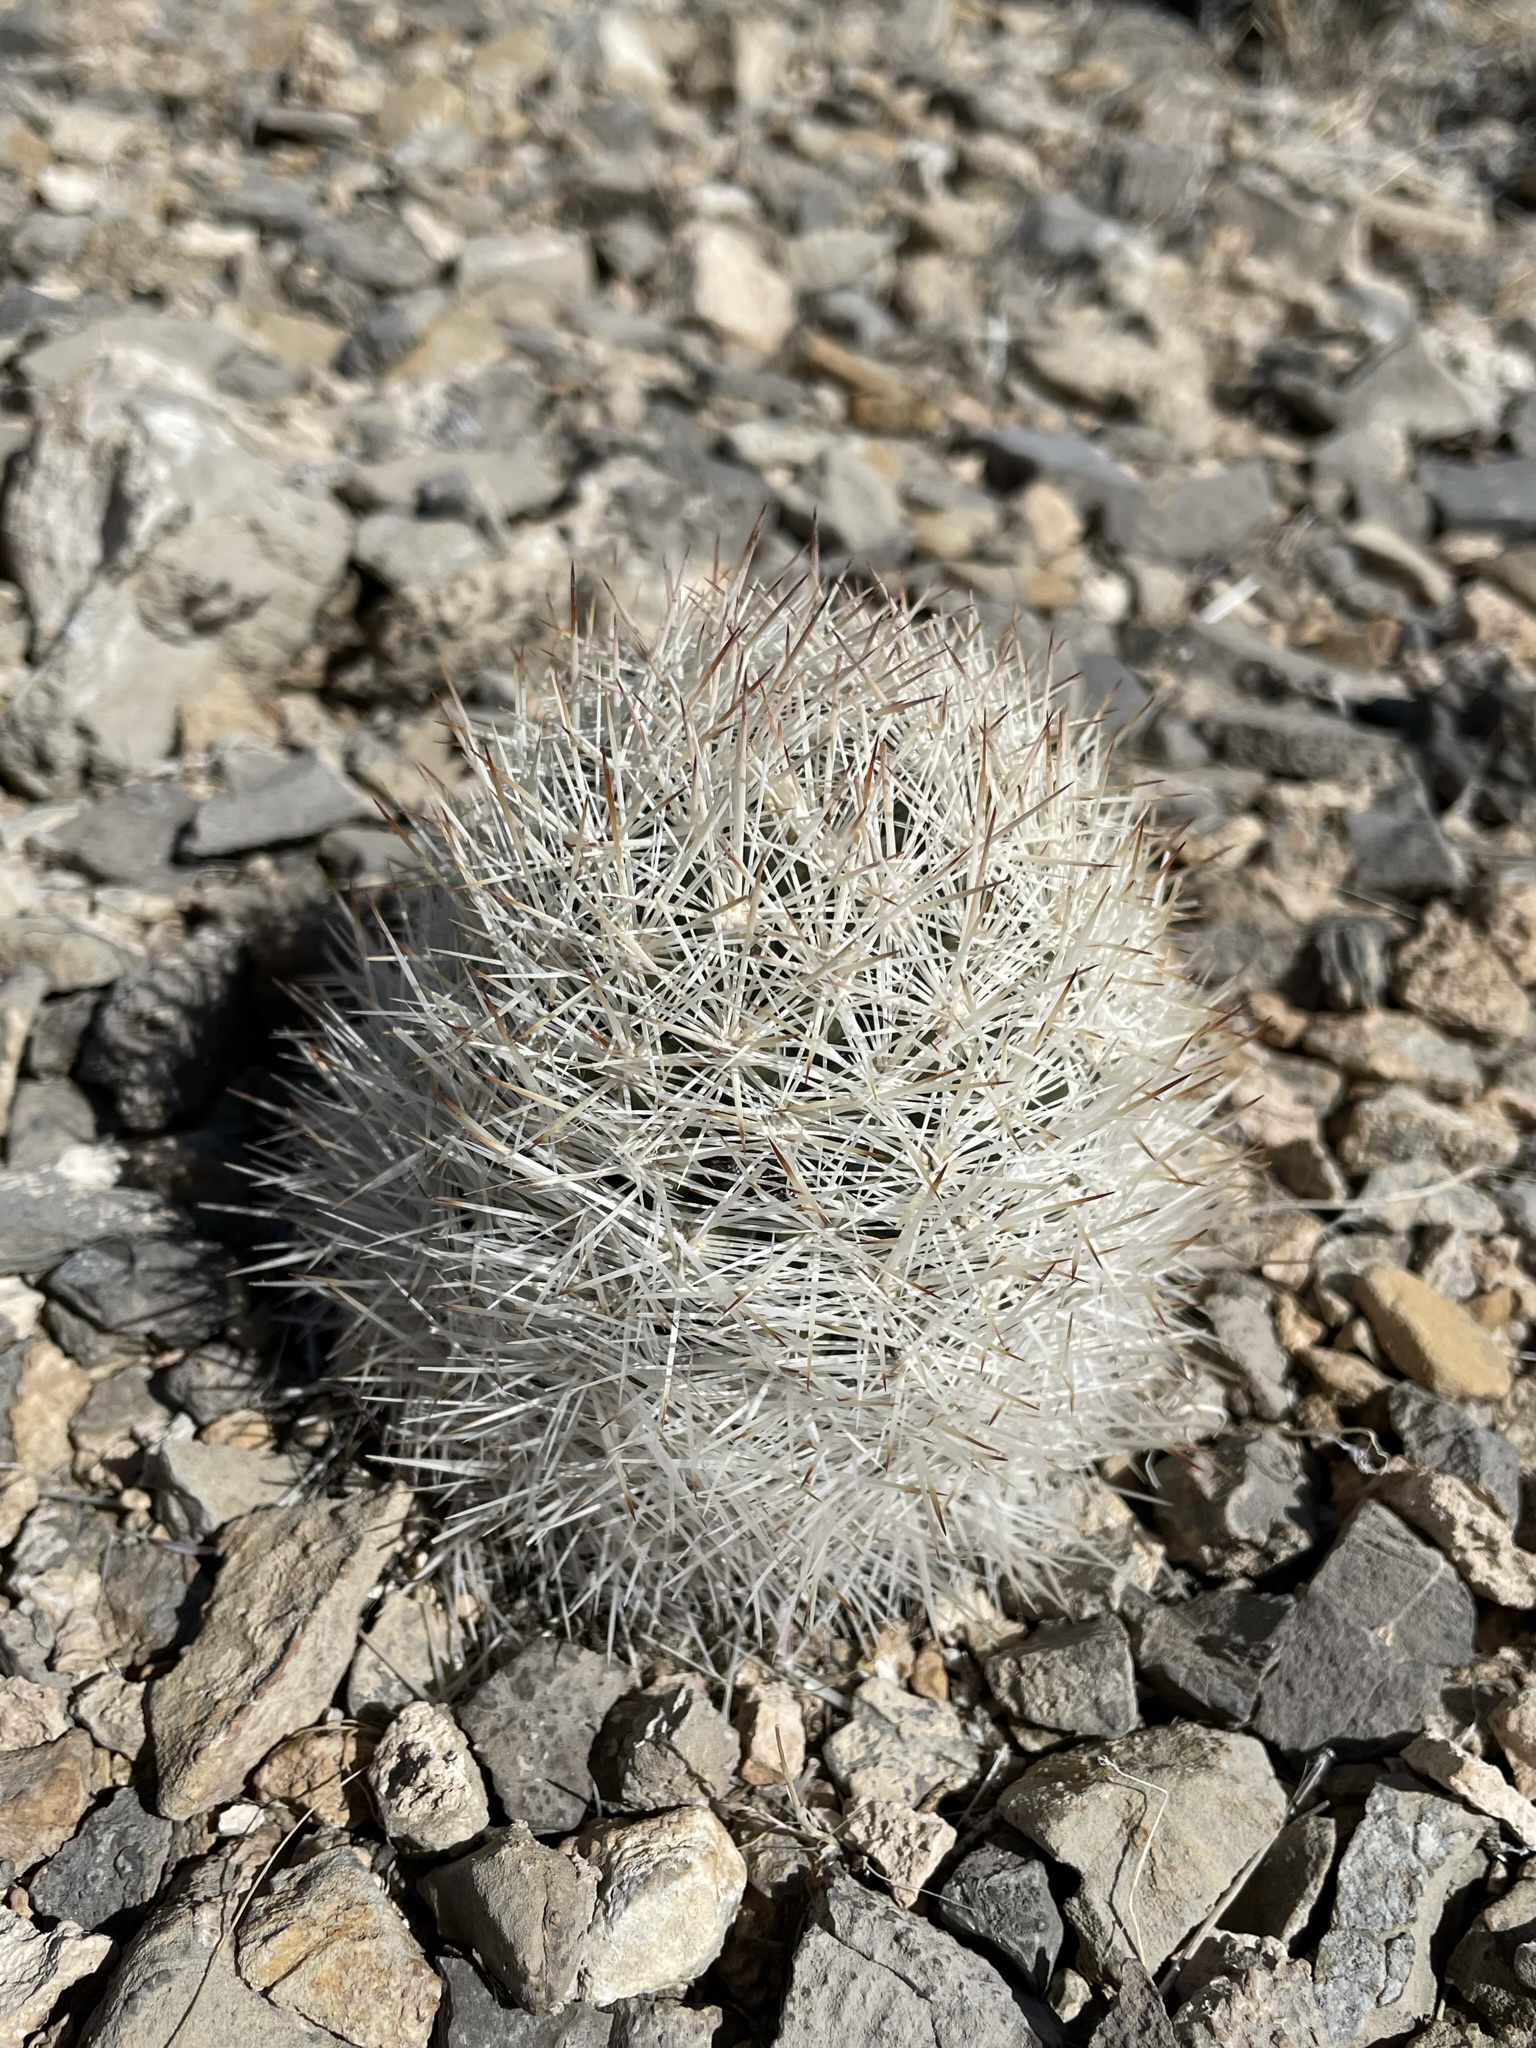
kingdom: Plantae
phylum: Tracheophyta
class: Magnoliopsida
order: Caryophyllales
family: Cactaceae
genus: Pelecyphora
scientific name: Pelecyphora dasyacantha
